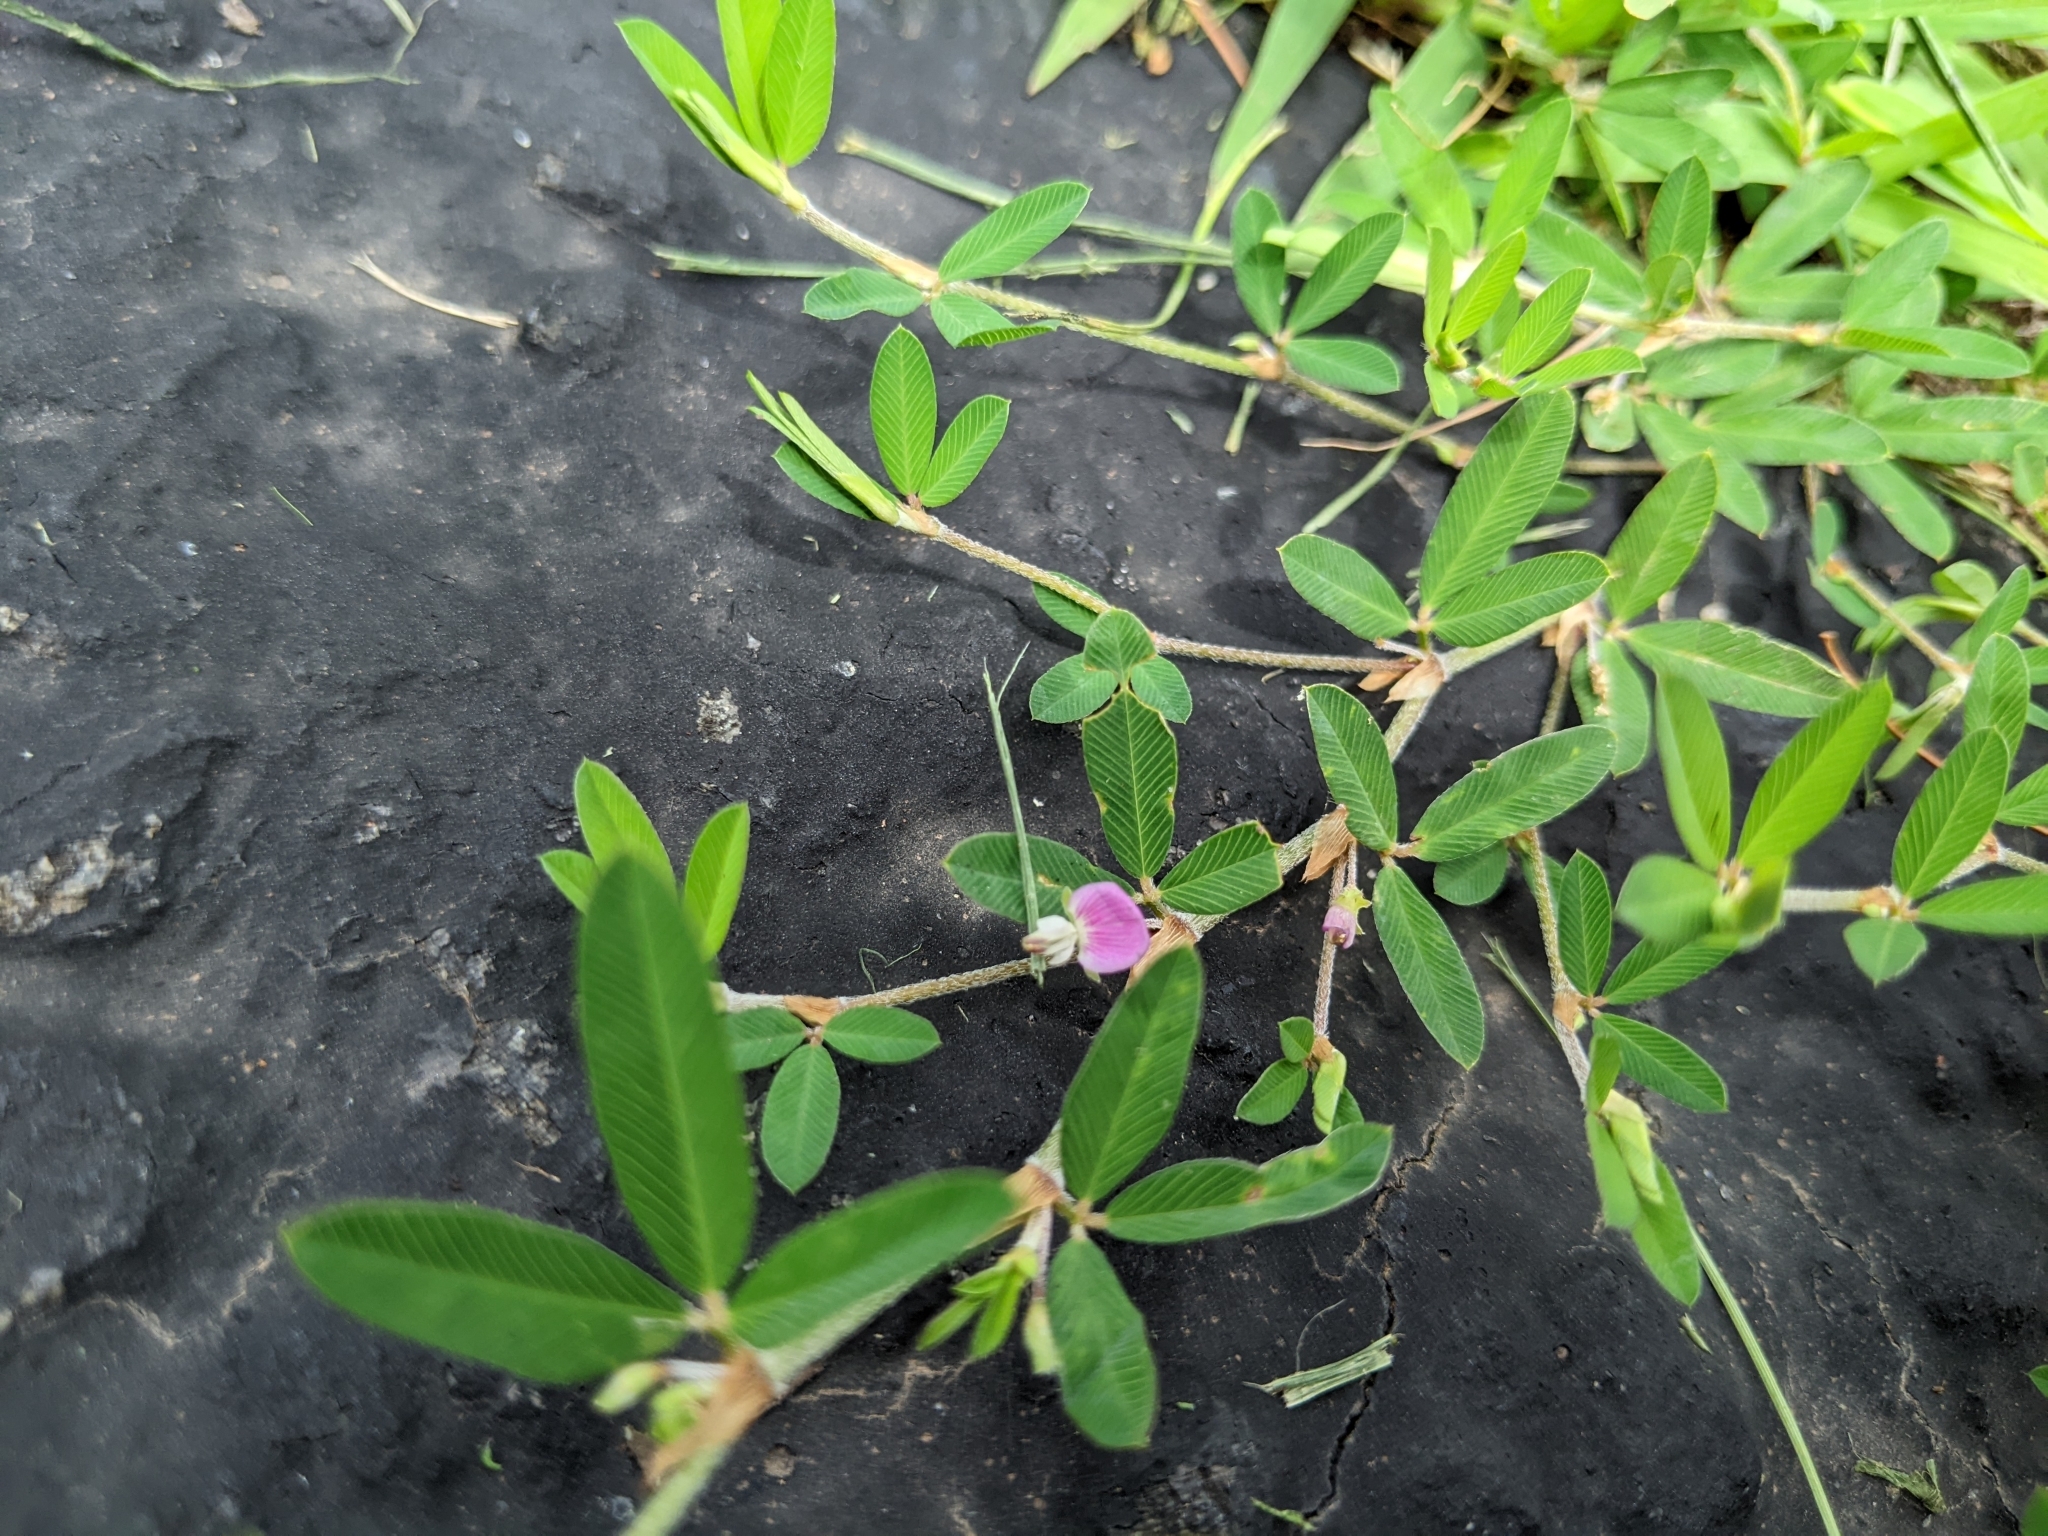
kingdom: Plantae
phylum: Tracheophyta
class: Magnoliopsida
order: Fabales
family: Fabaceae
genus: Kummerowia
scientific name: Kummerowia striata
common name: Japanese clover
